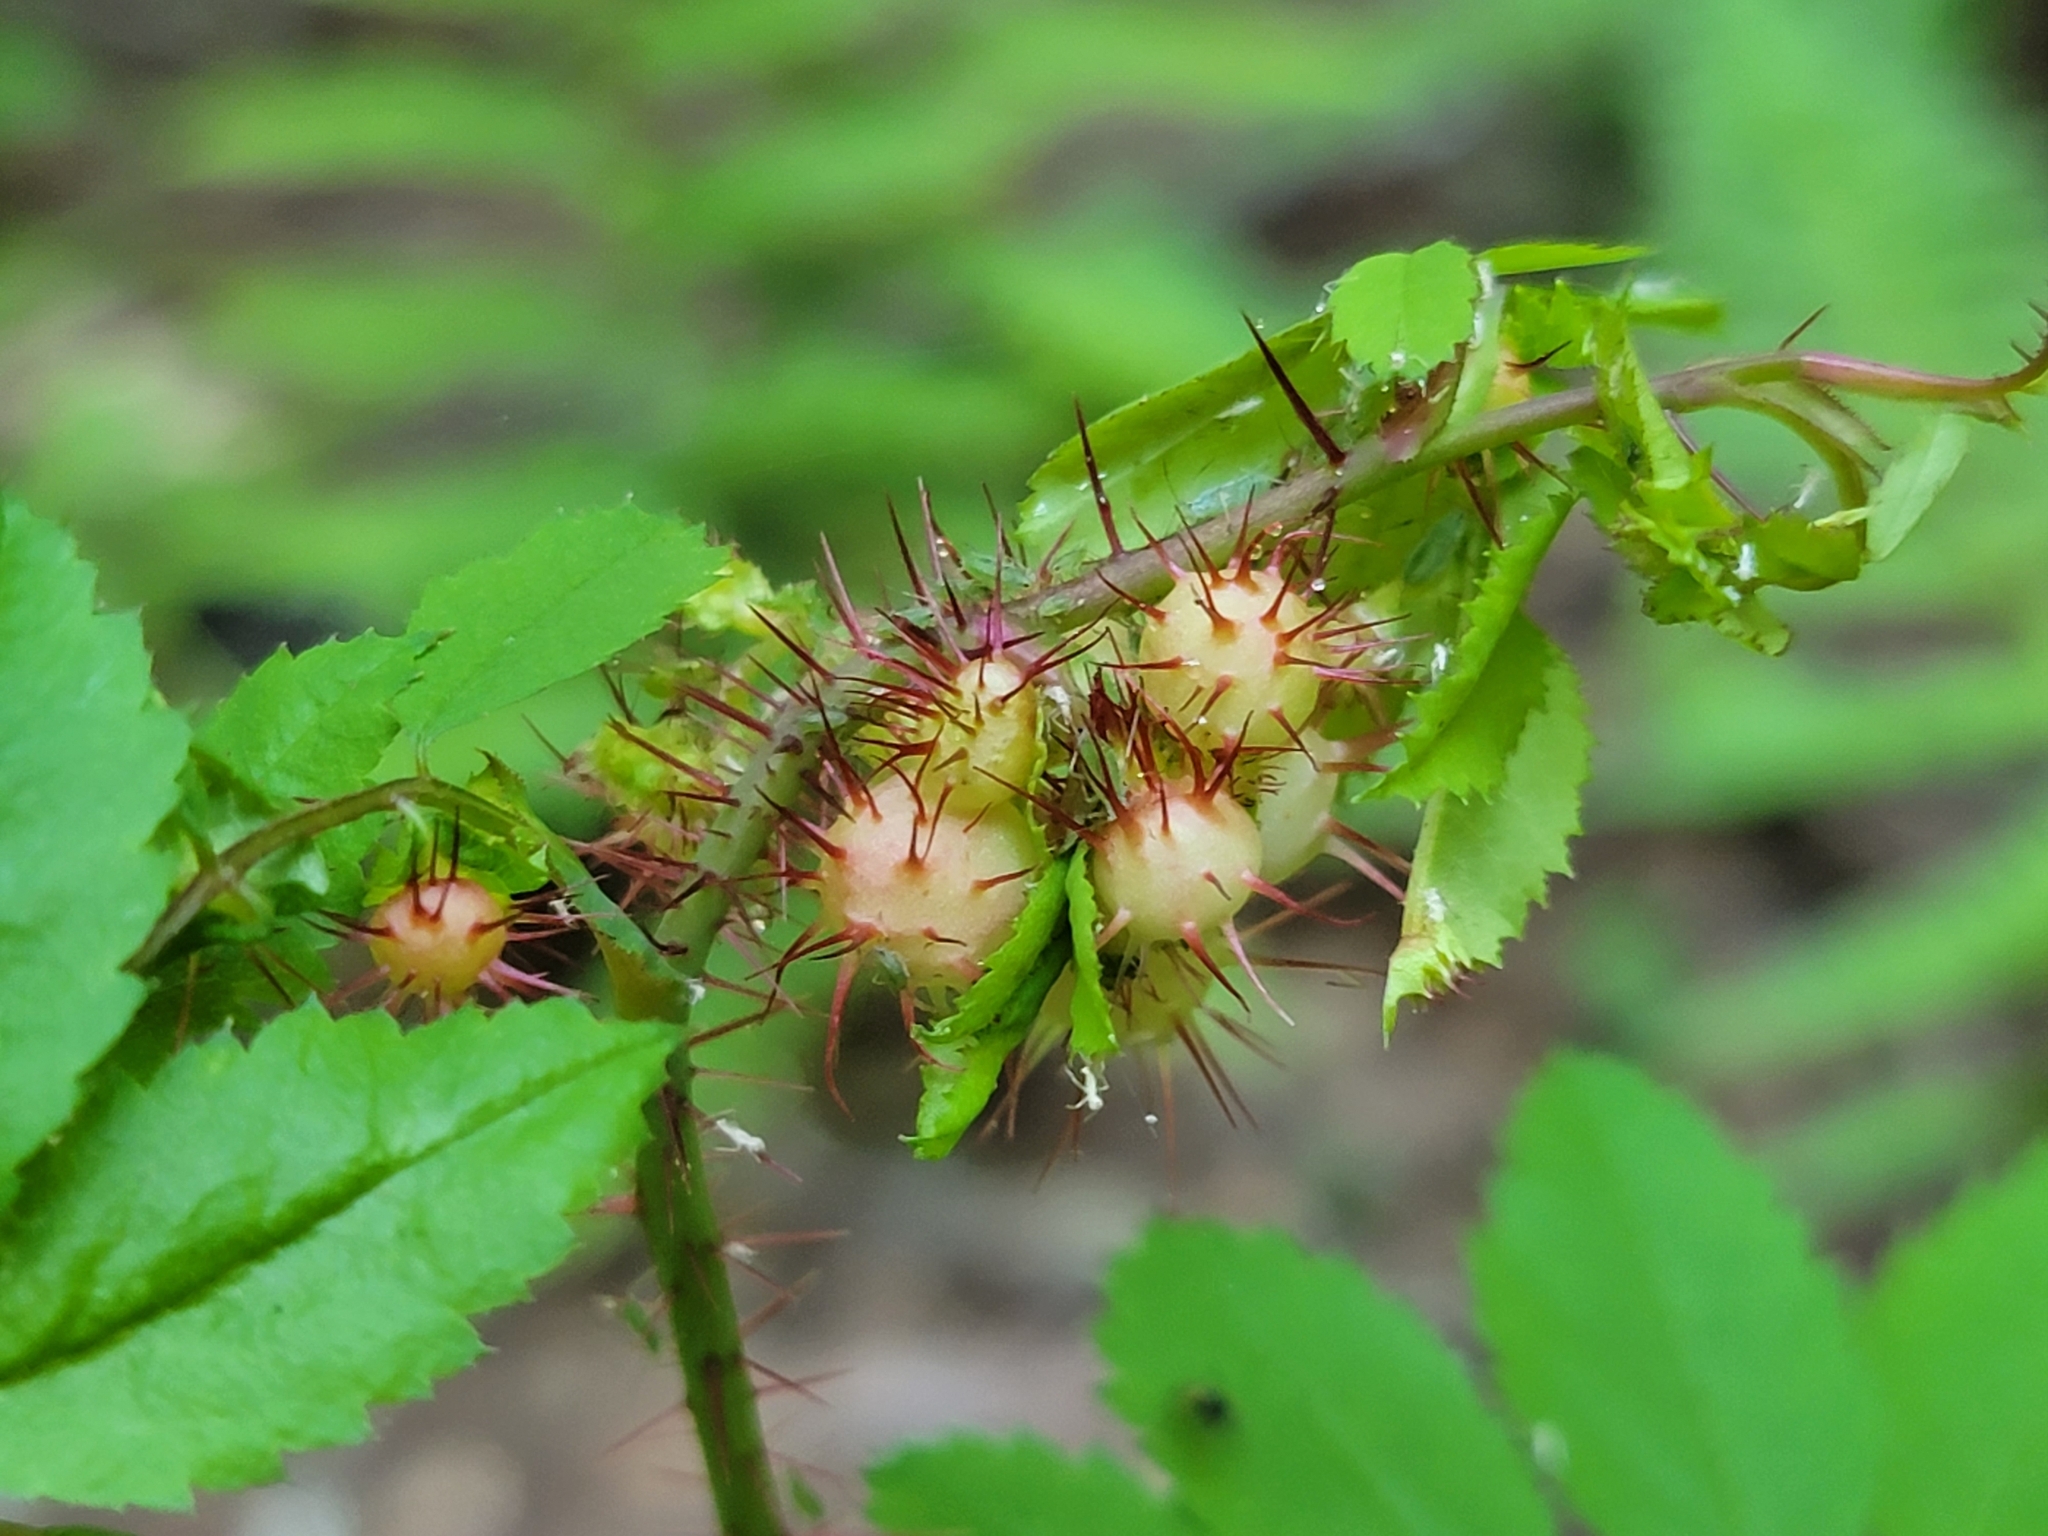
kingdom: Animalia
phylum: Arthropoda
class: Insecta
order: Hymenoptera
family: Cynipidae
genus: Diplolepis
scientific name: Diplolepis polita
